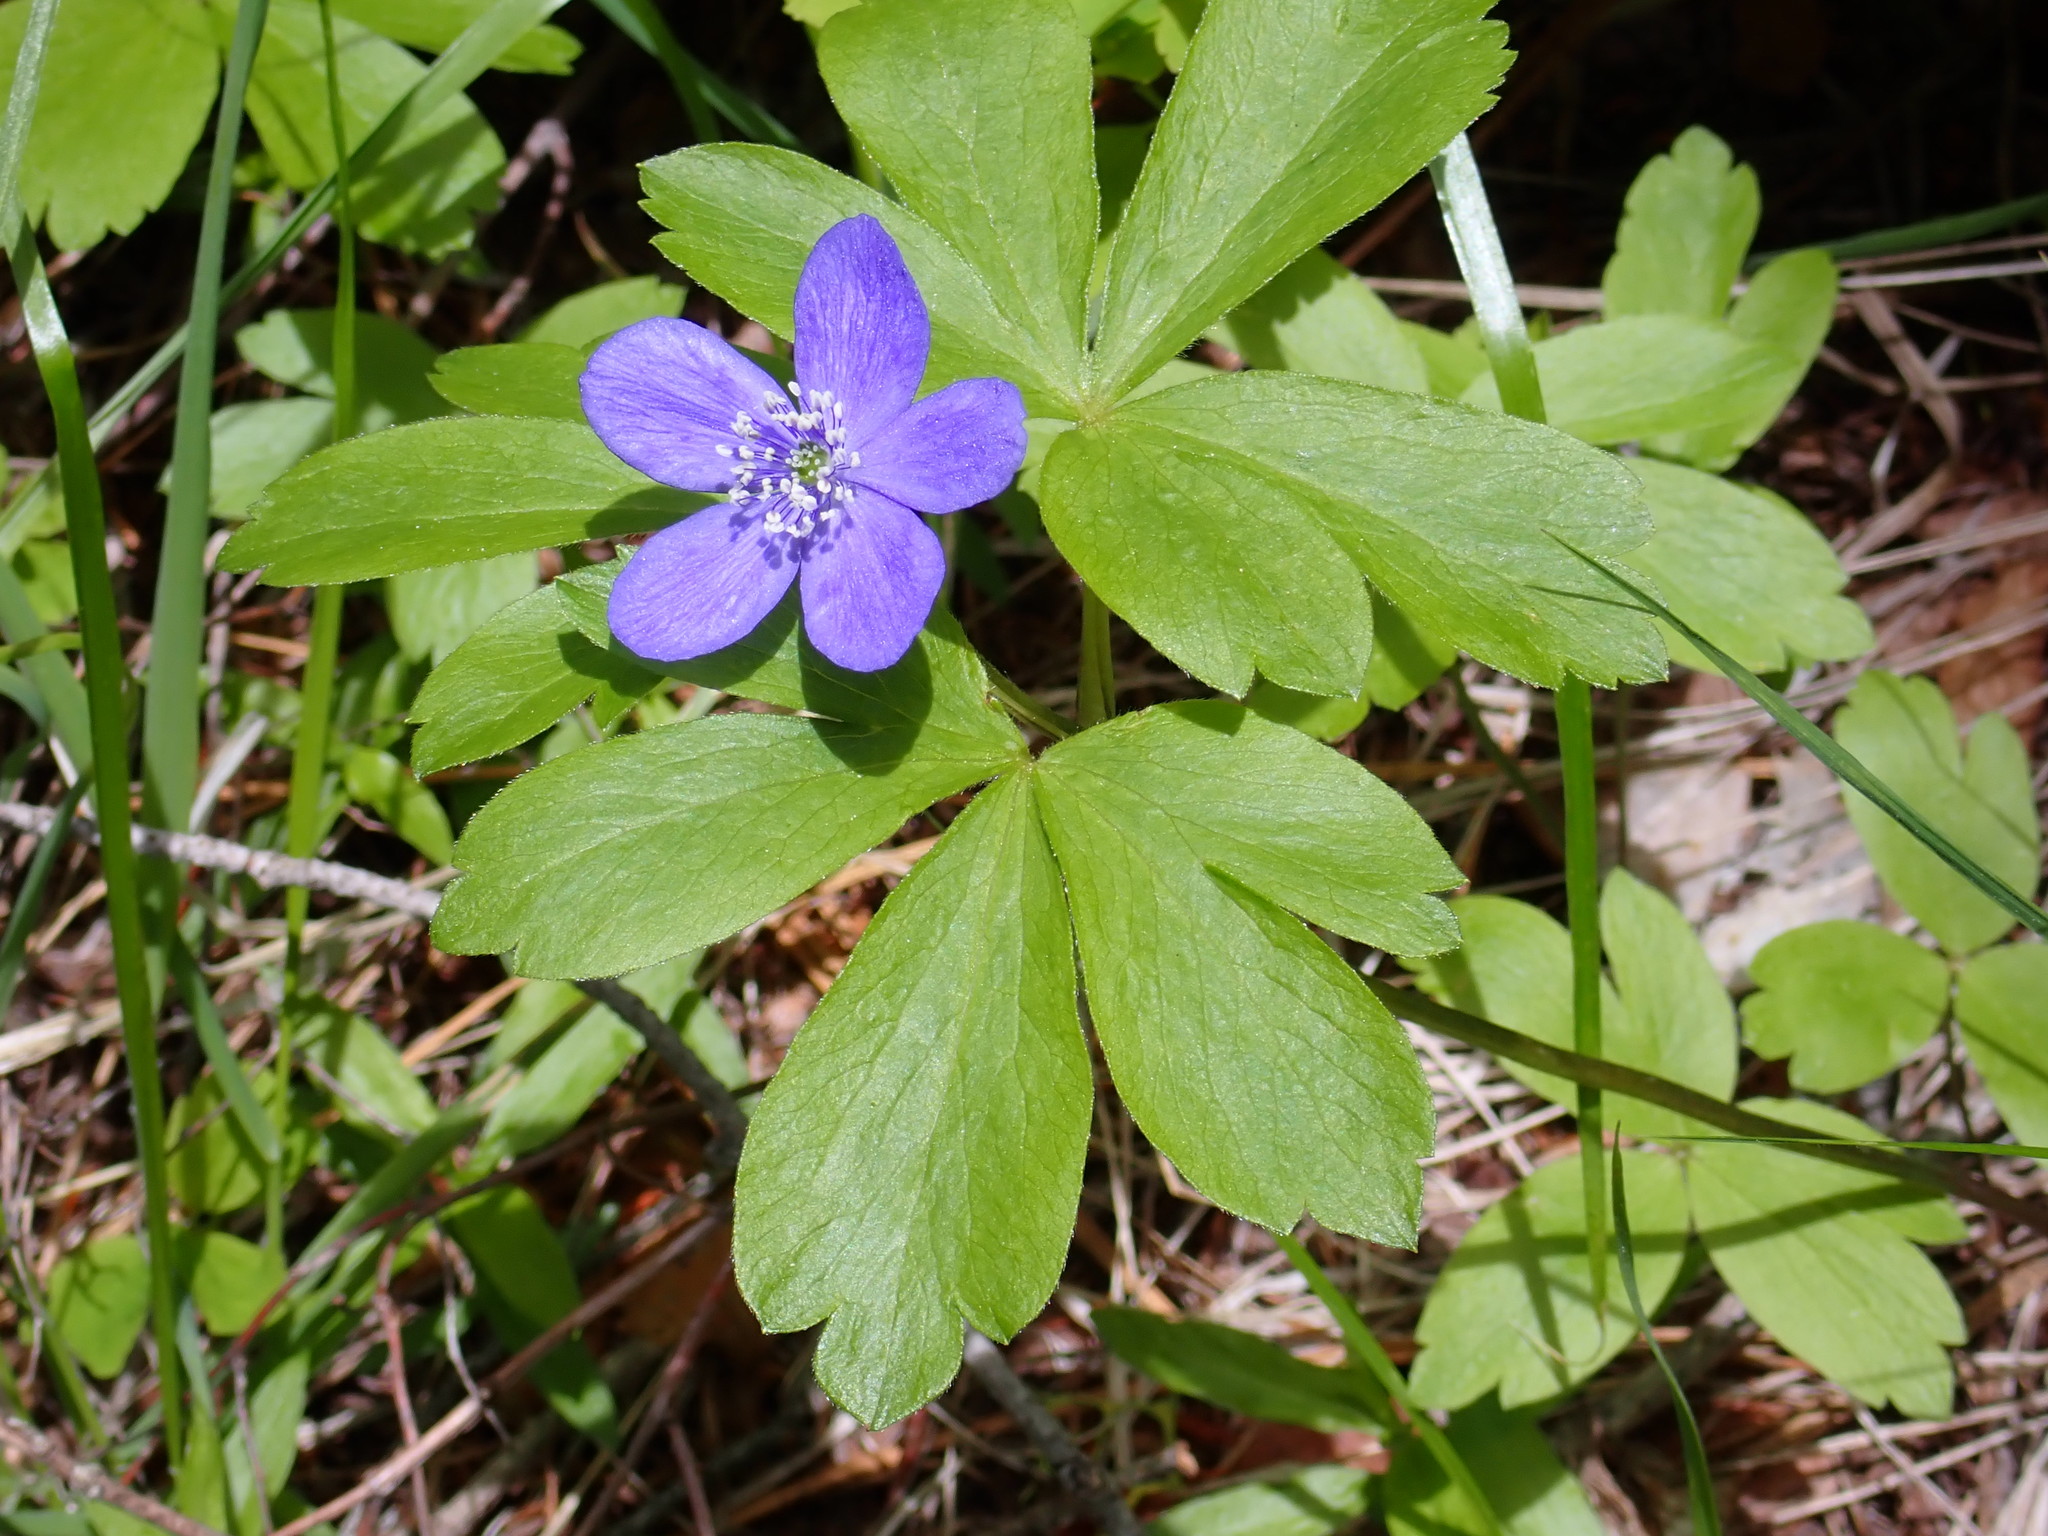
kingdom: Plantae
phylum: Tracheophyta
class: Magnoliopsida
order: Ranunculales
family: Ranunculaceae
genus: Anemone
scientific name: Anemone oregana
